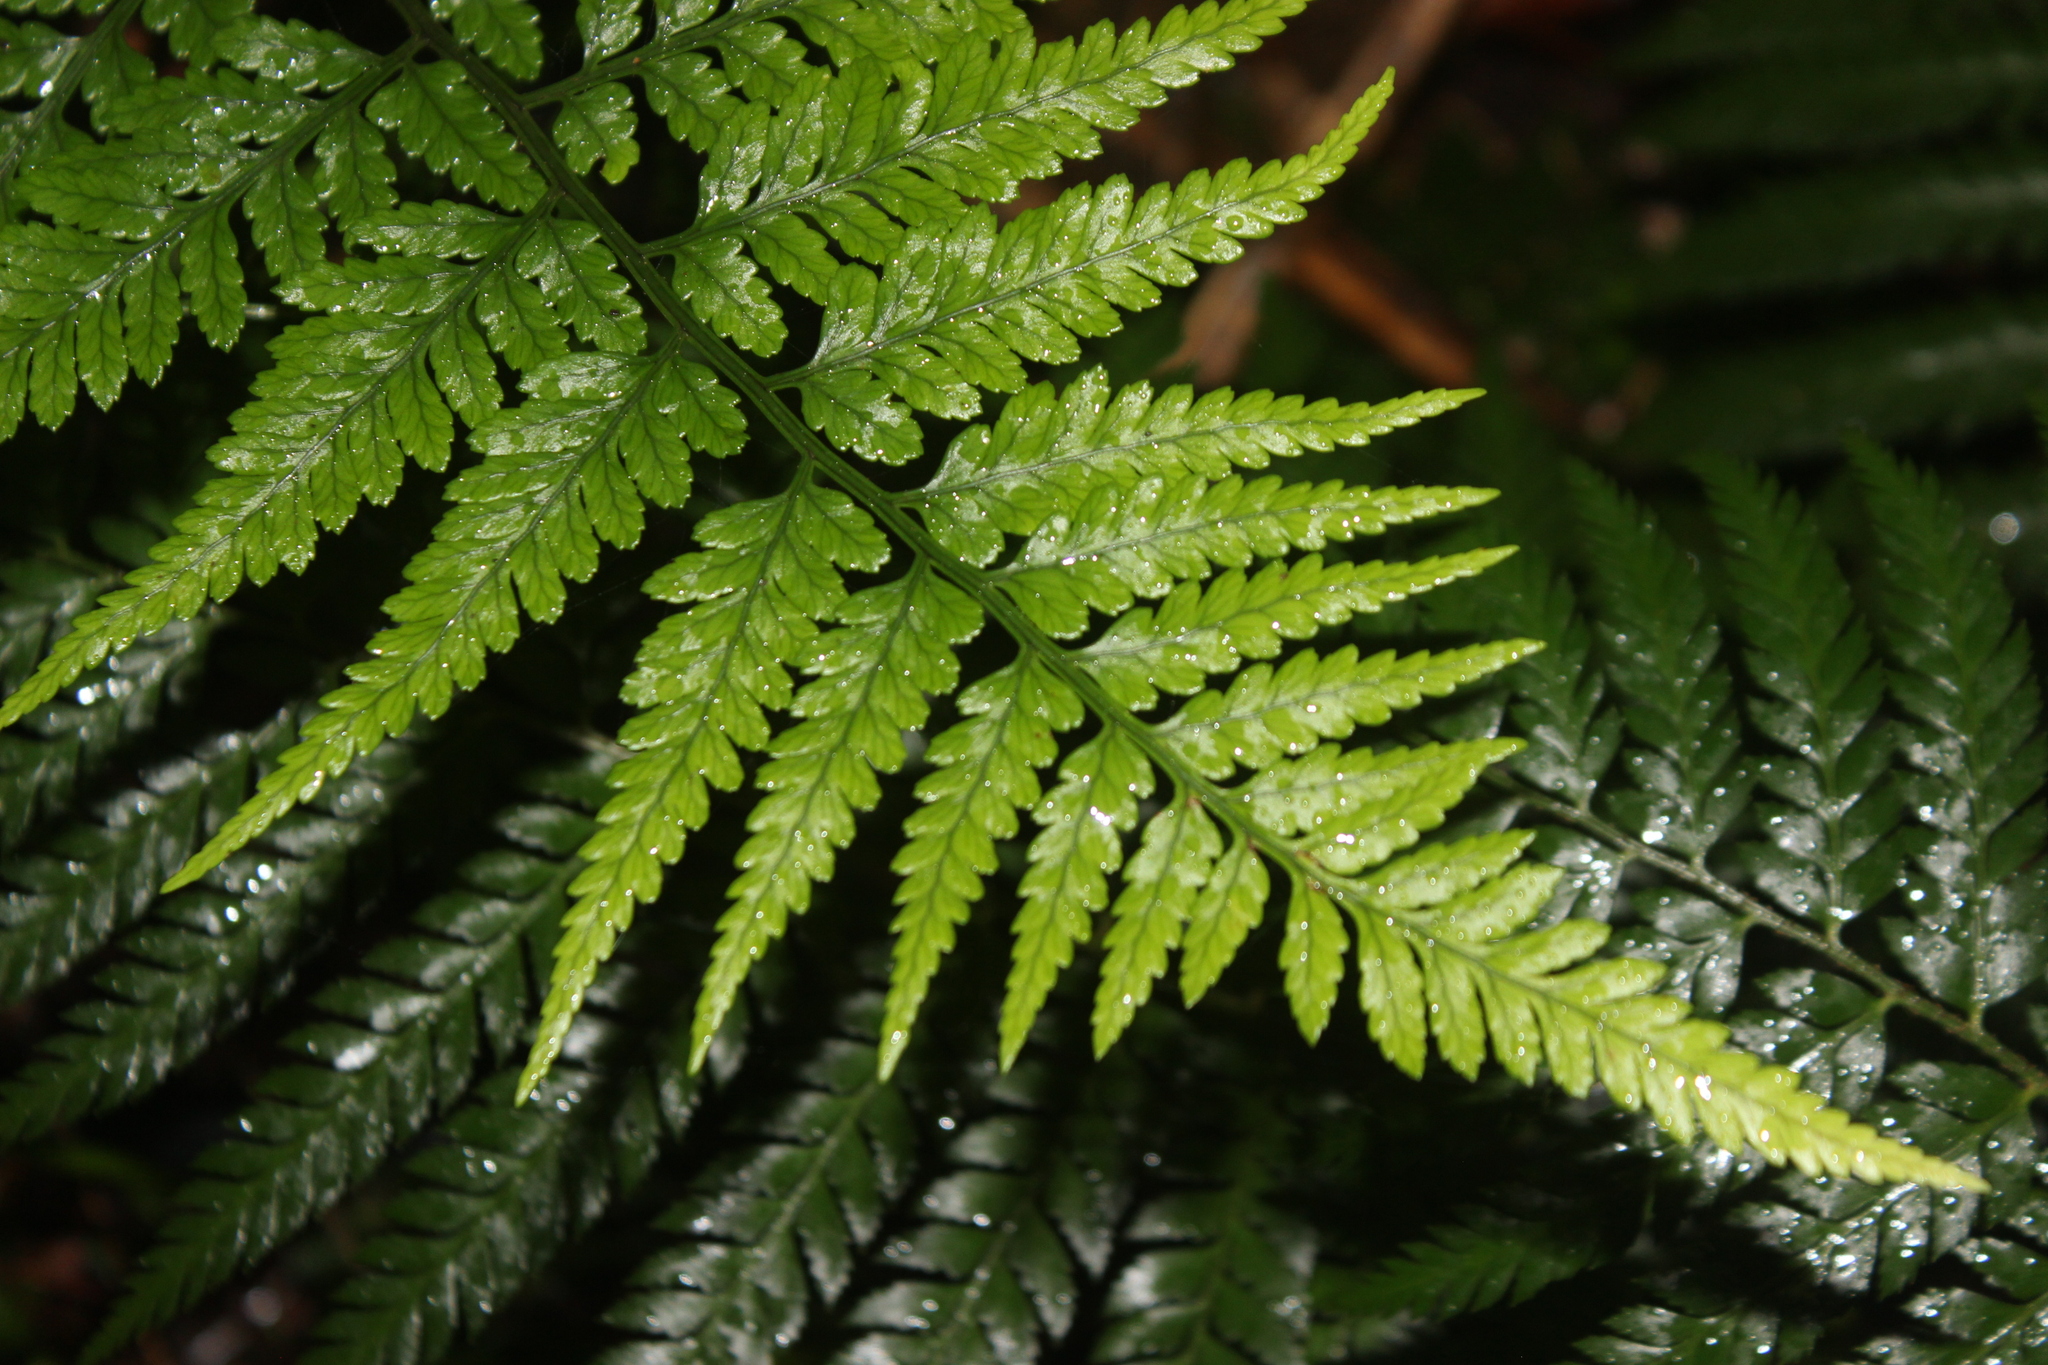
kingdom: Plantae
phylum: Tracheophyta
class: Polypodiopsida
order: Polypodiales
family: Dryopteridaceae
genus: Rumohra
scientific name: Rumohra adiantiformis
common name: Leather fern
